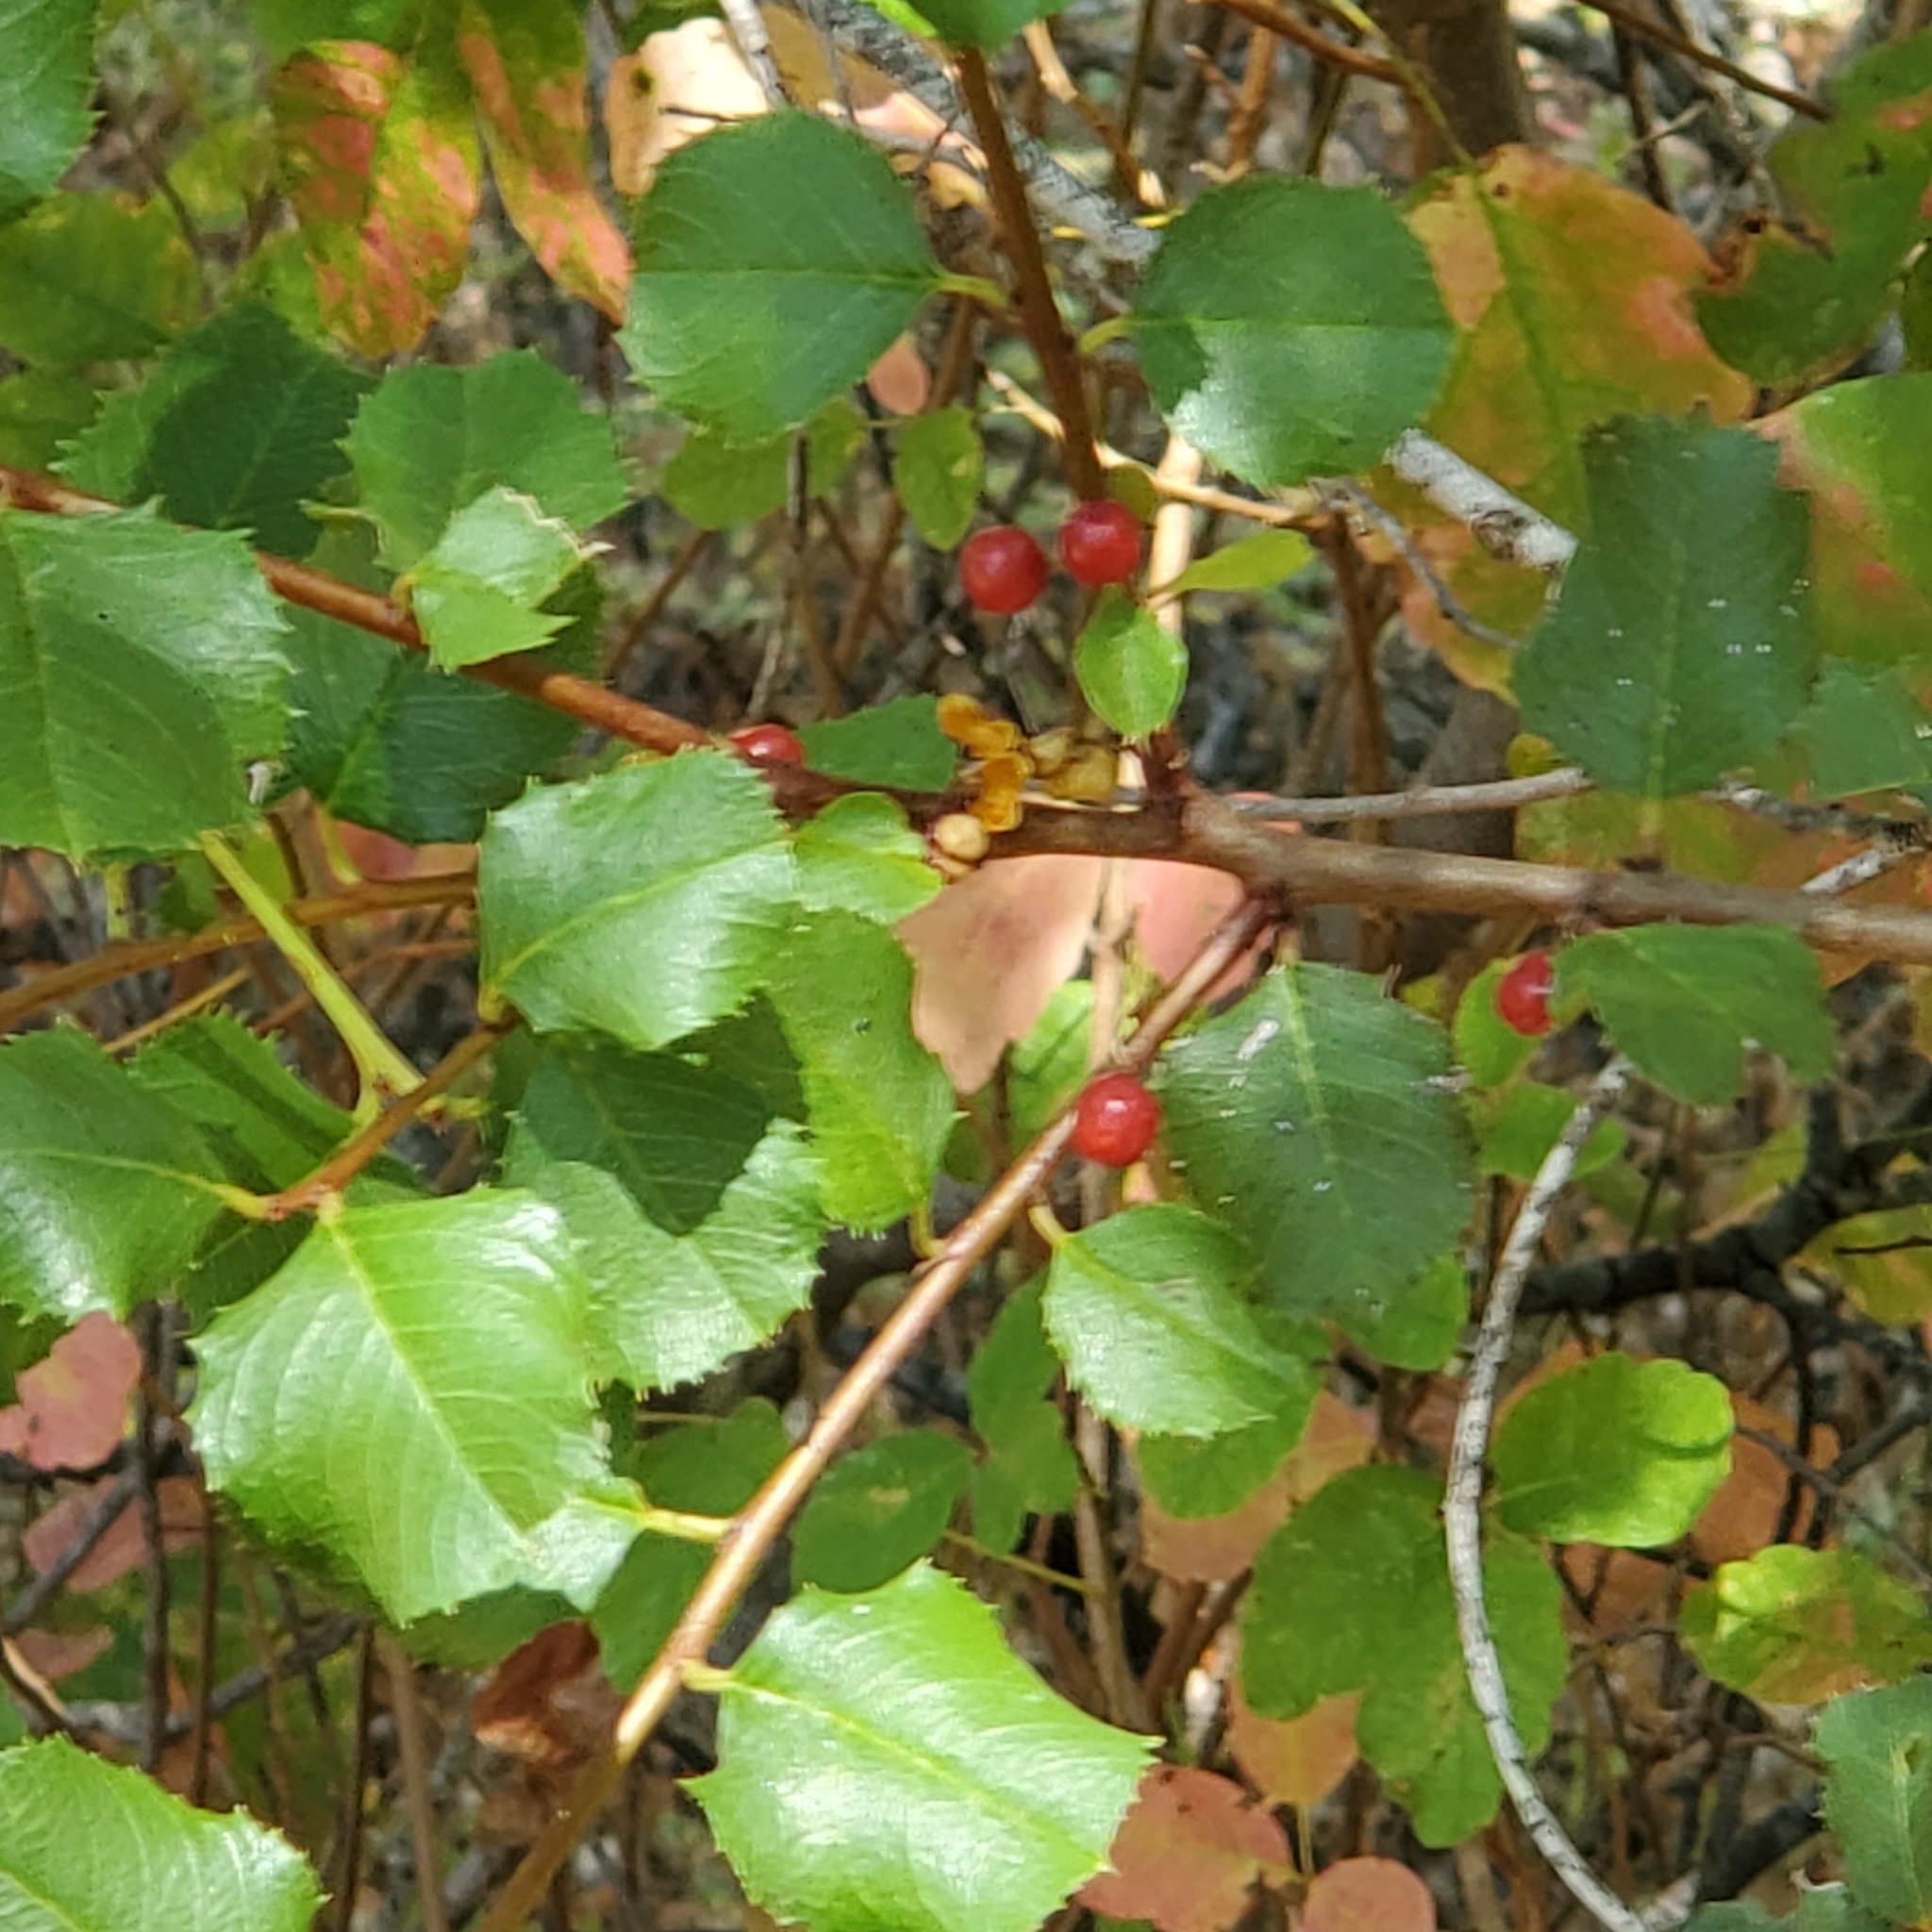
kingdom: Plantae
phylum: Tracheophyta
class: Magnoliopsida
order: Rosales
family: Rhamnaceae
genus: Endotropis
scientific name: Endotropis crocea
